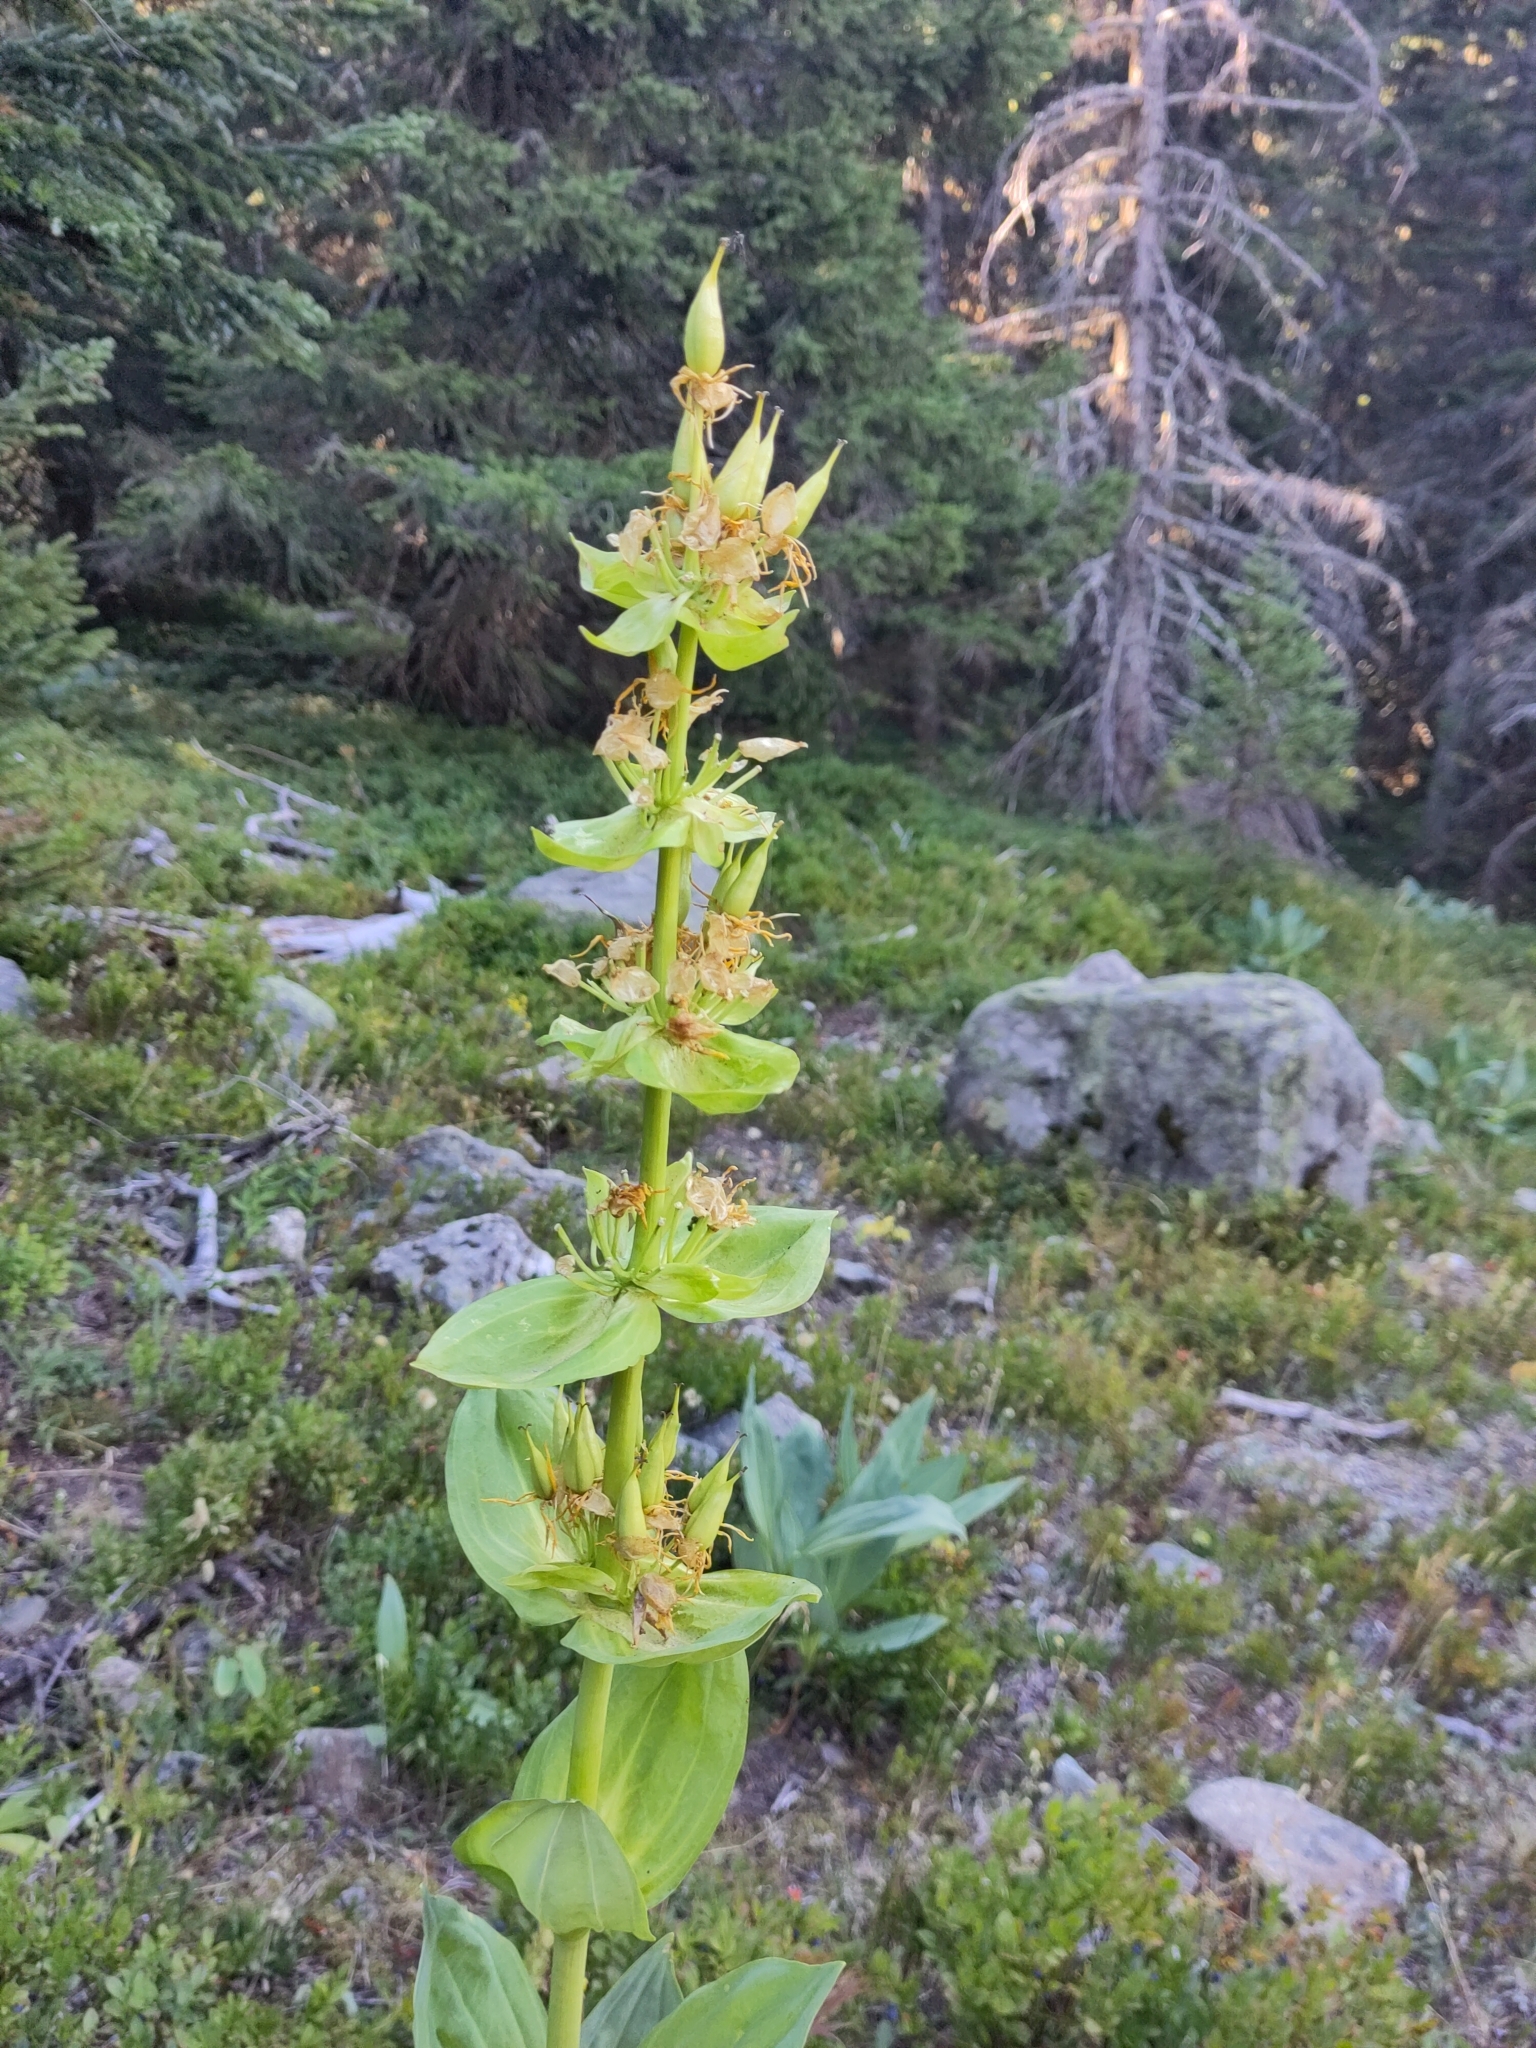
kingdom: Plantae
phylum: Tracheophyta
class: Magnoliopsida
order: Gentianales
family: Gentianaceae
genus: Gentiana
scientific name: Gentiana lutea
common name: Great yellow gentian
